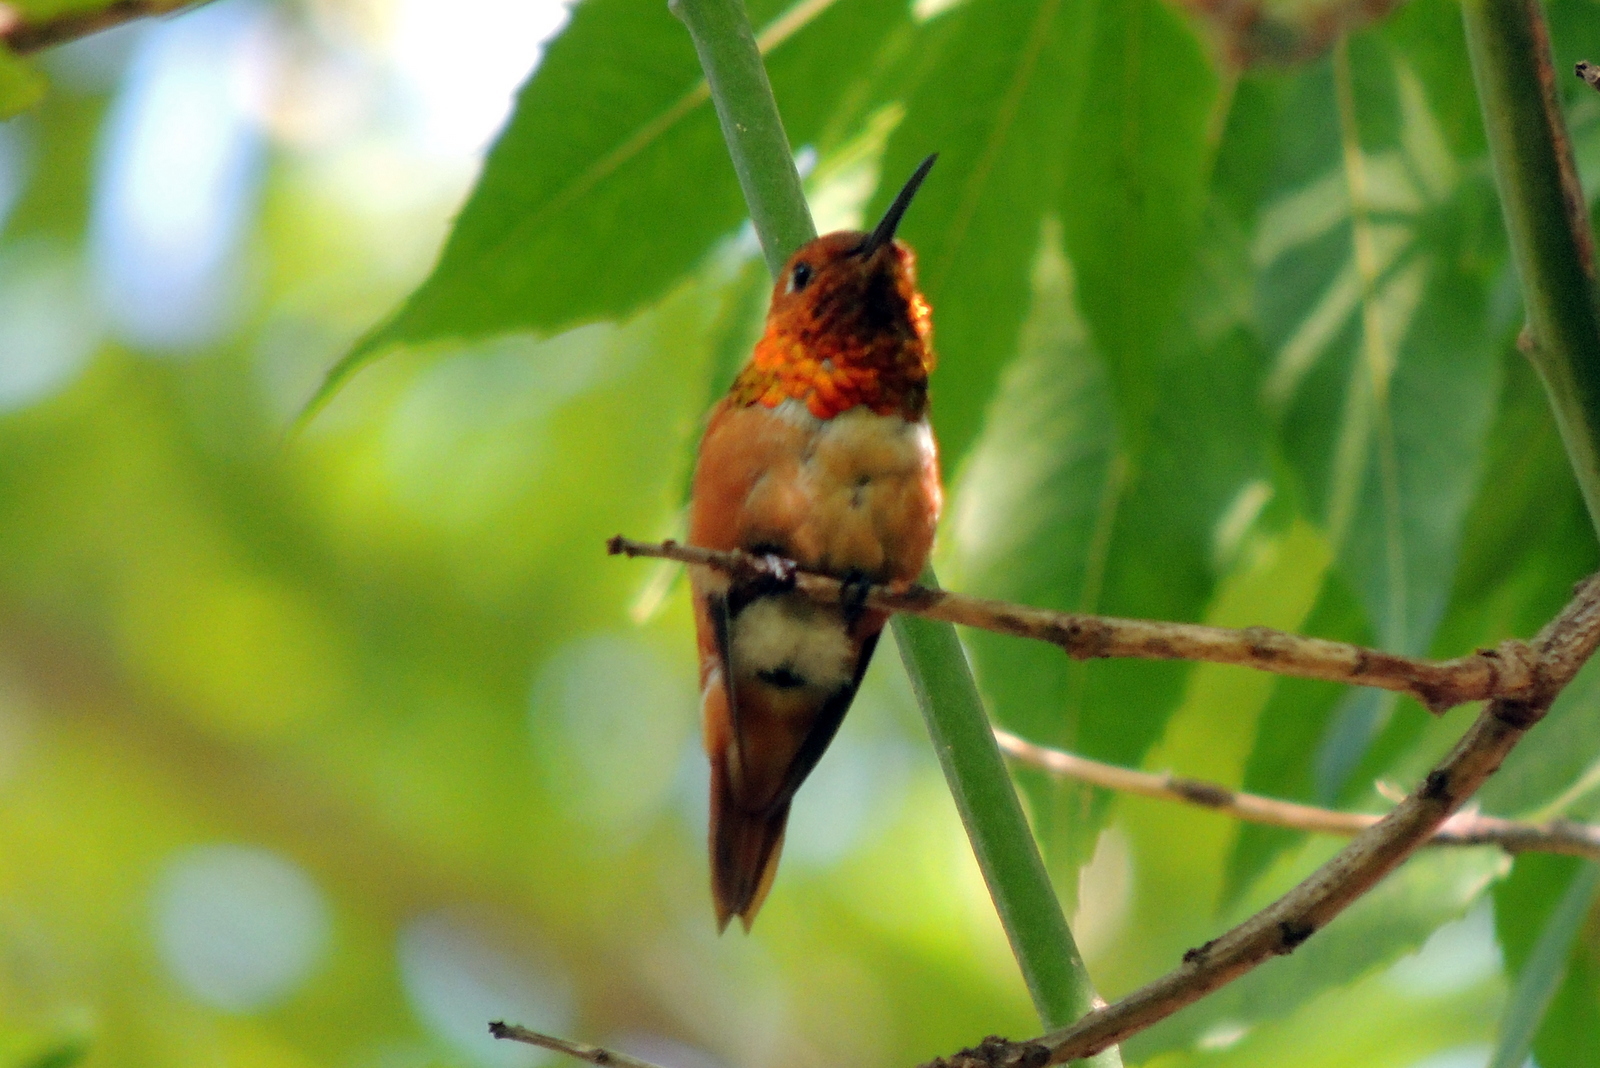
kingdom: Animalia
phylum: Chordata
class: Aves
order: Apodiformes
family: Trochilidae
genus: Selasphorus
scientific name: Selasphorus sasin
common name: Allen's hummingbird
